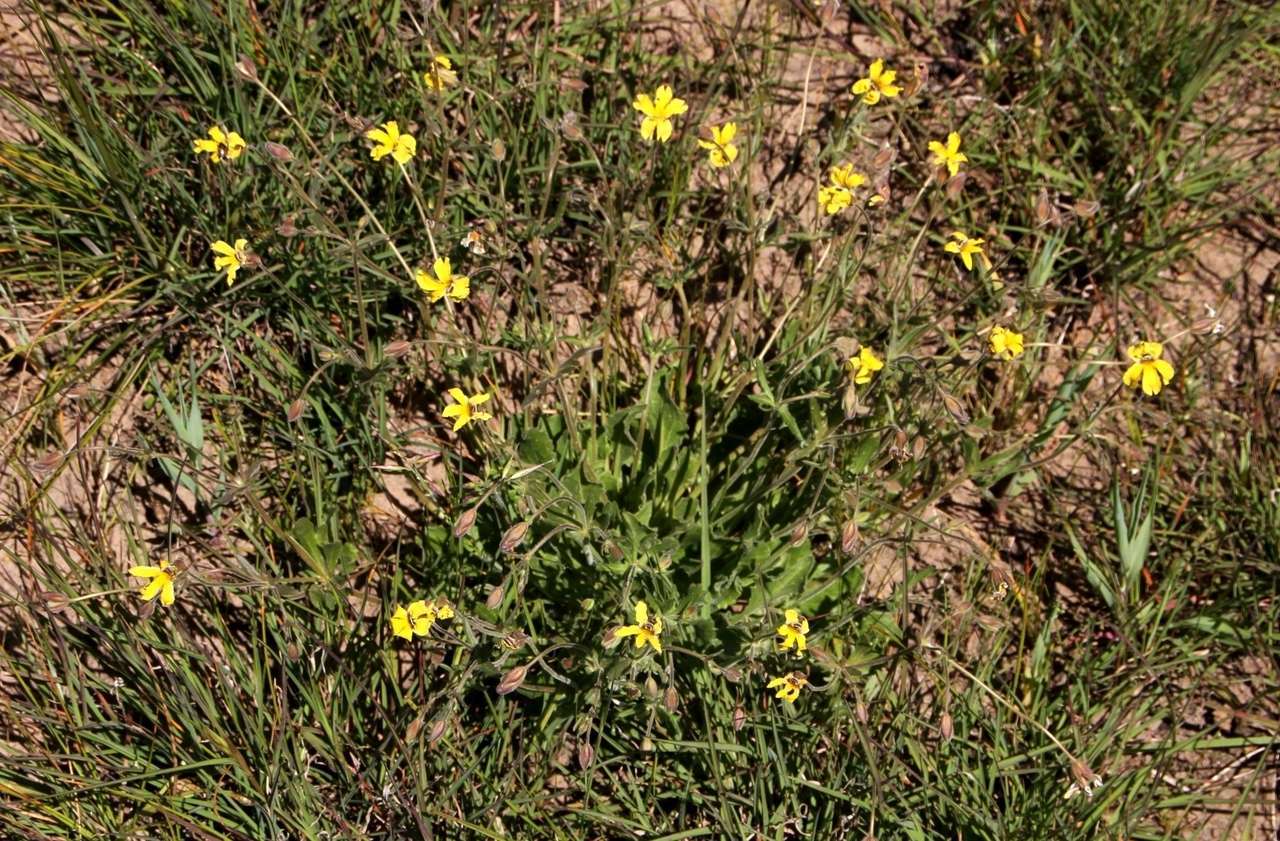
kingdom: Plantae
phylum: Tracheophyta
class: Magnoliopsida
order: Asterales
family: Goodeniaceae
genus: Goodenia
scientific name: Goodenia paradoxa
